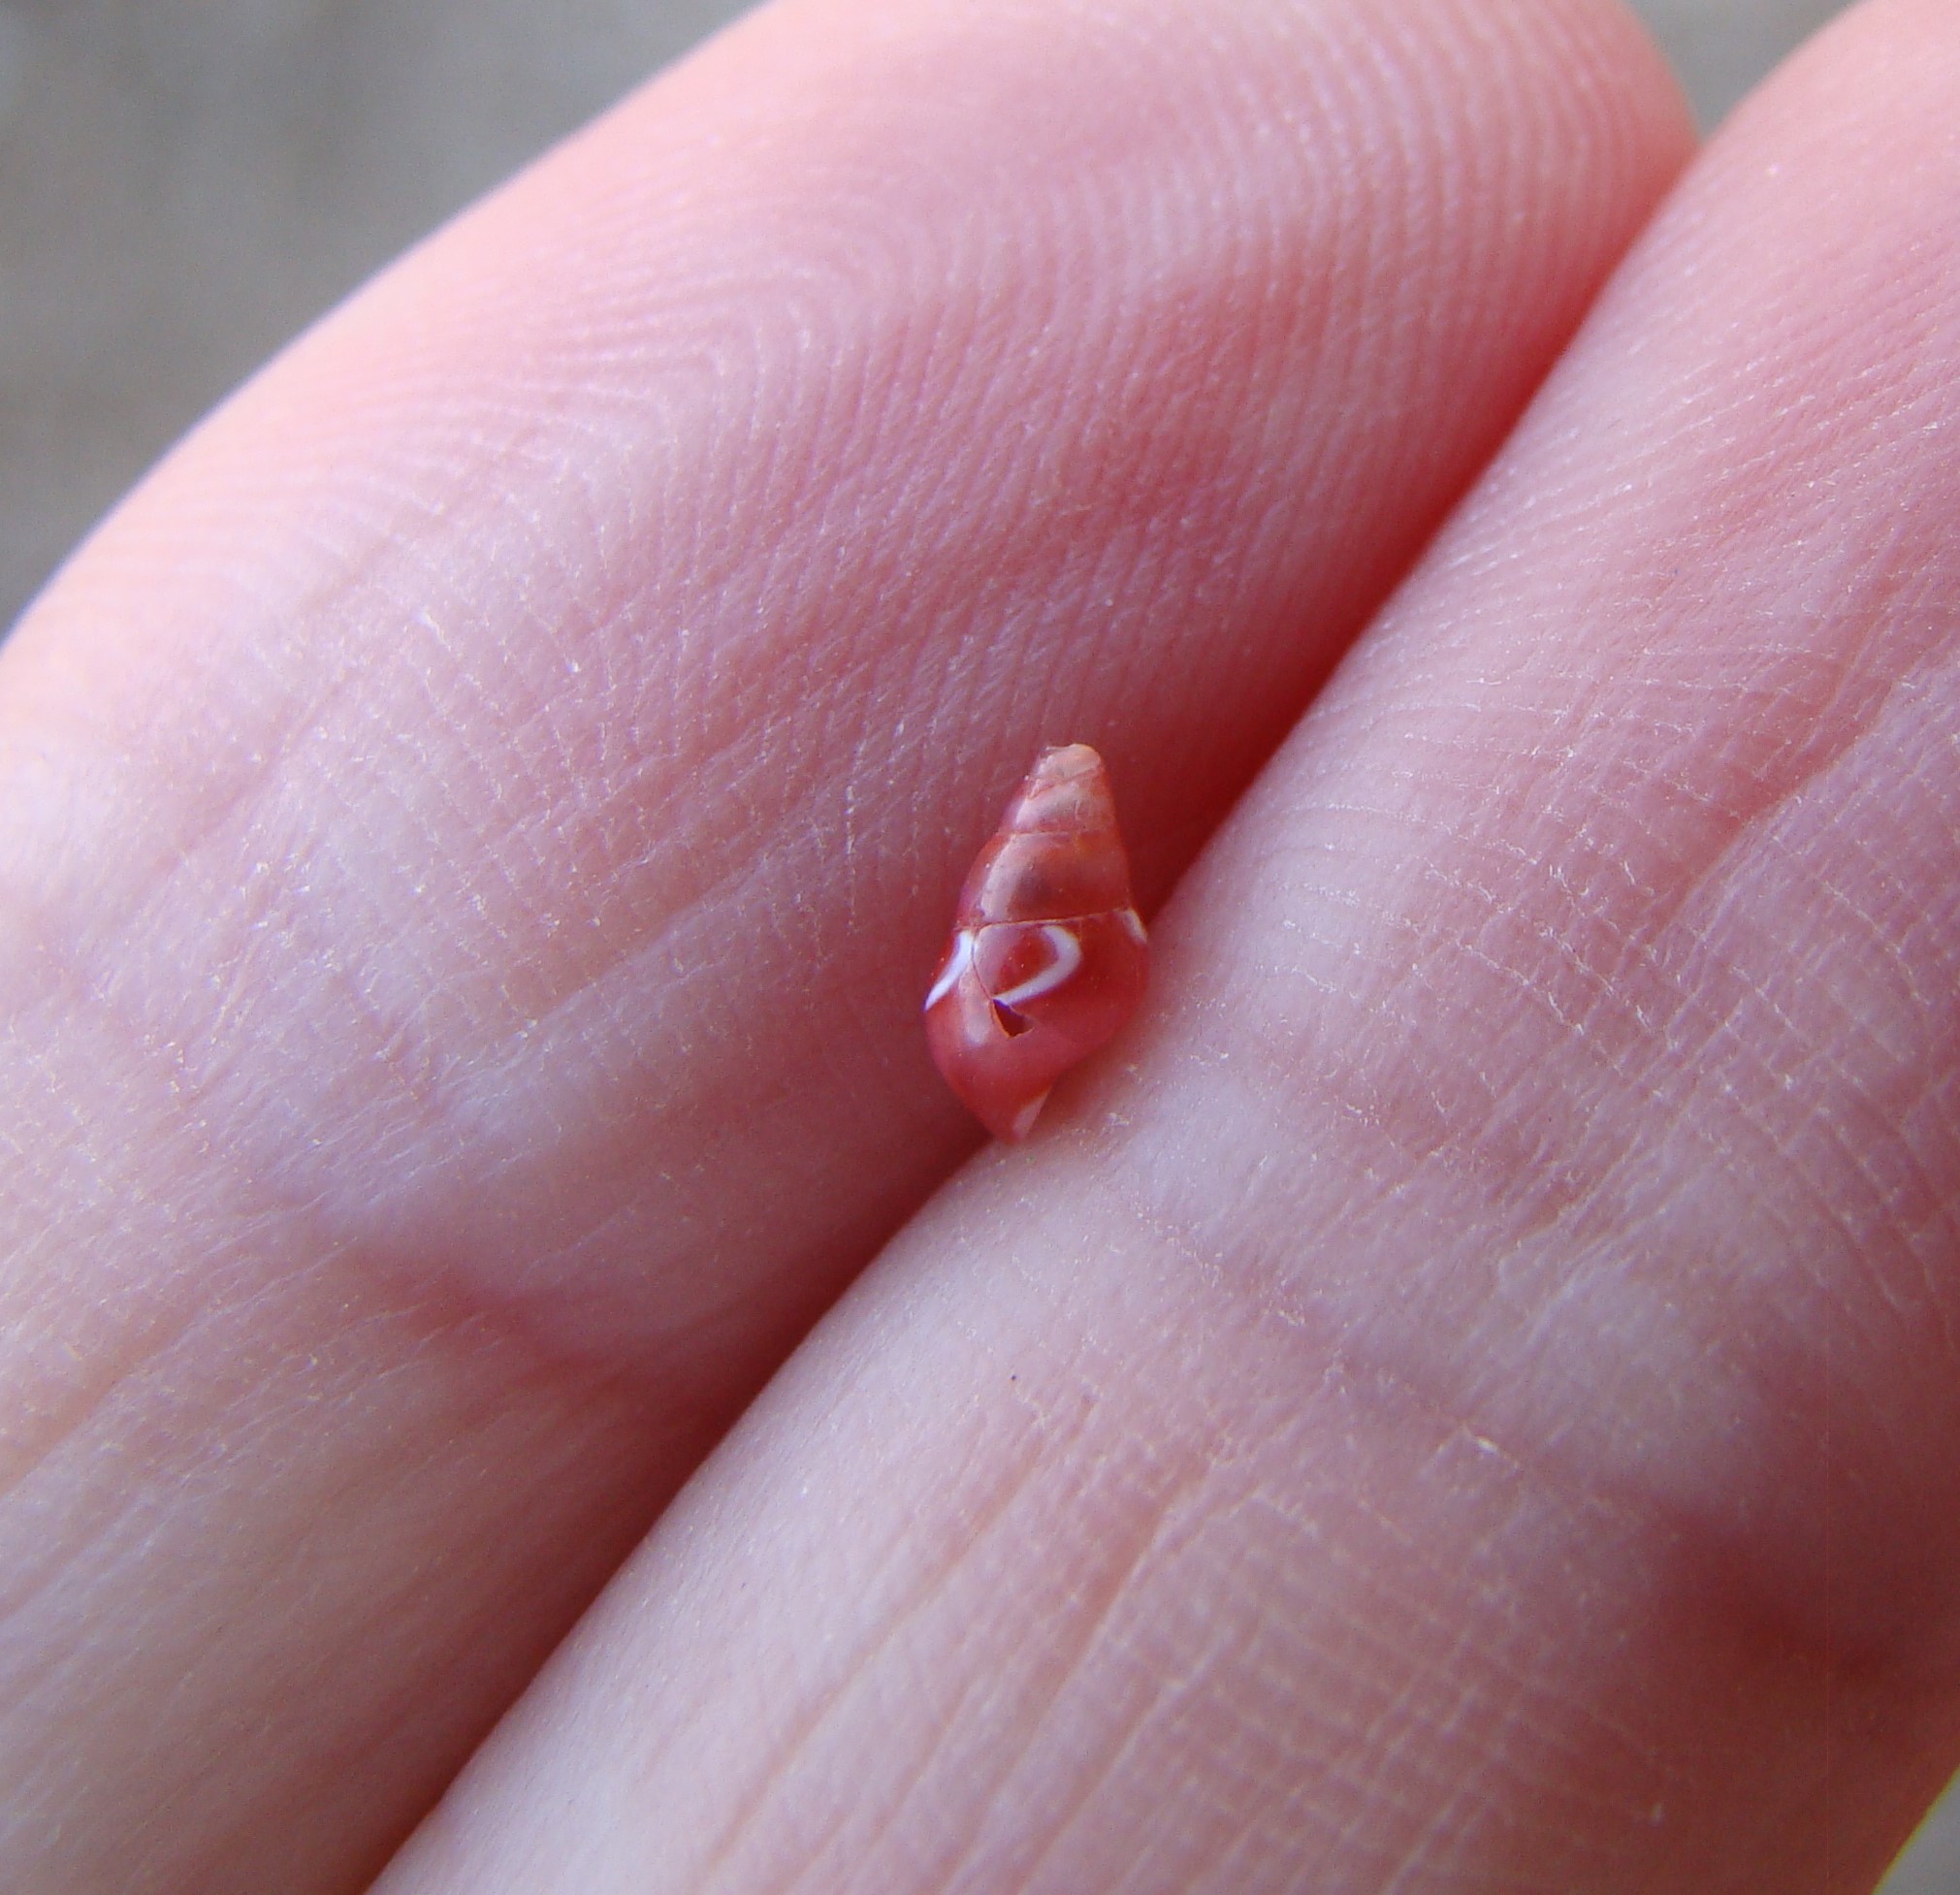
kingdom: Animalia
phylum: Mollusca
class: Gastropoda
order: Littorinimorpha
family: Eatoniellidae
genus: Eatoniella
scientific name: Eatoniella flammulata
